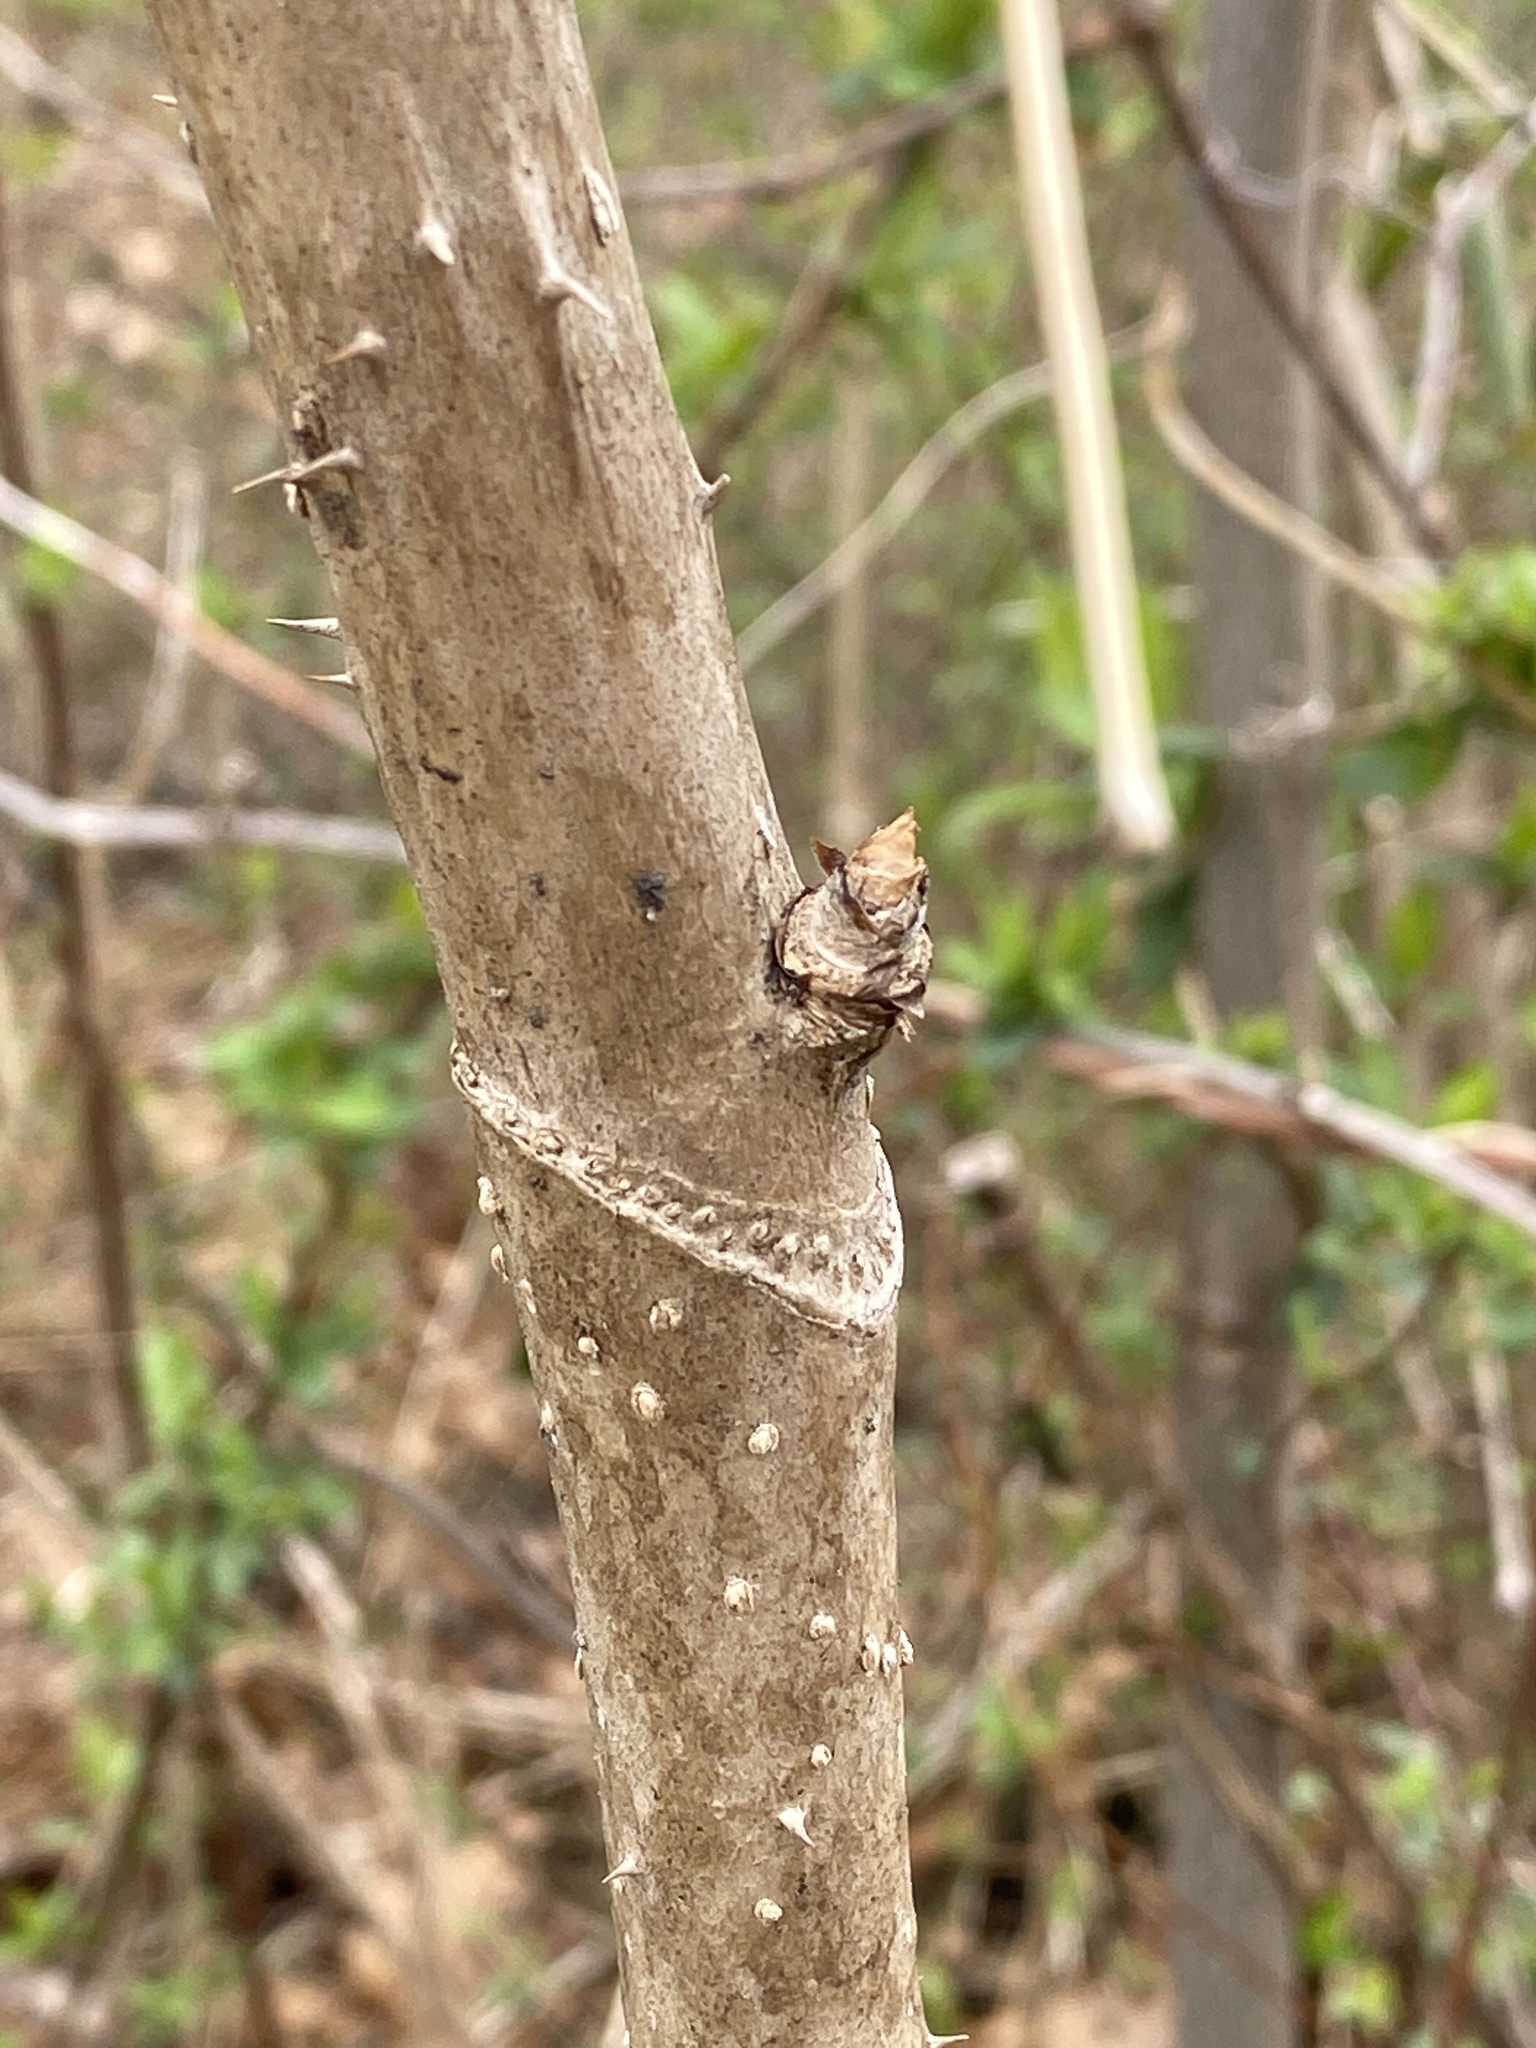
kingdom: Plantae
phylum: Tracheophyta
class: Magnoliopsida
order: Apiales
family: Araliaceae
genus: Aralia
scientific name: Aralia elata
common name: Japanese angelica-tree
